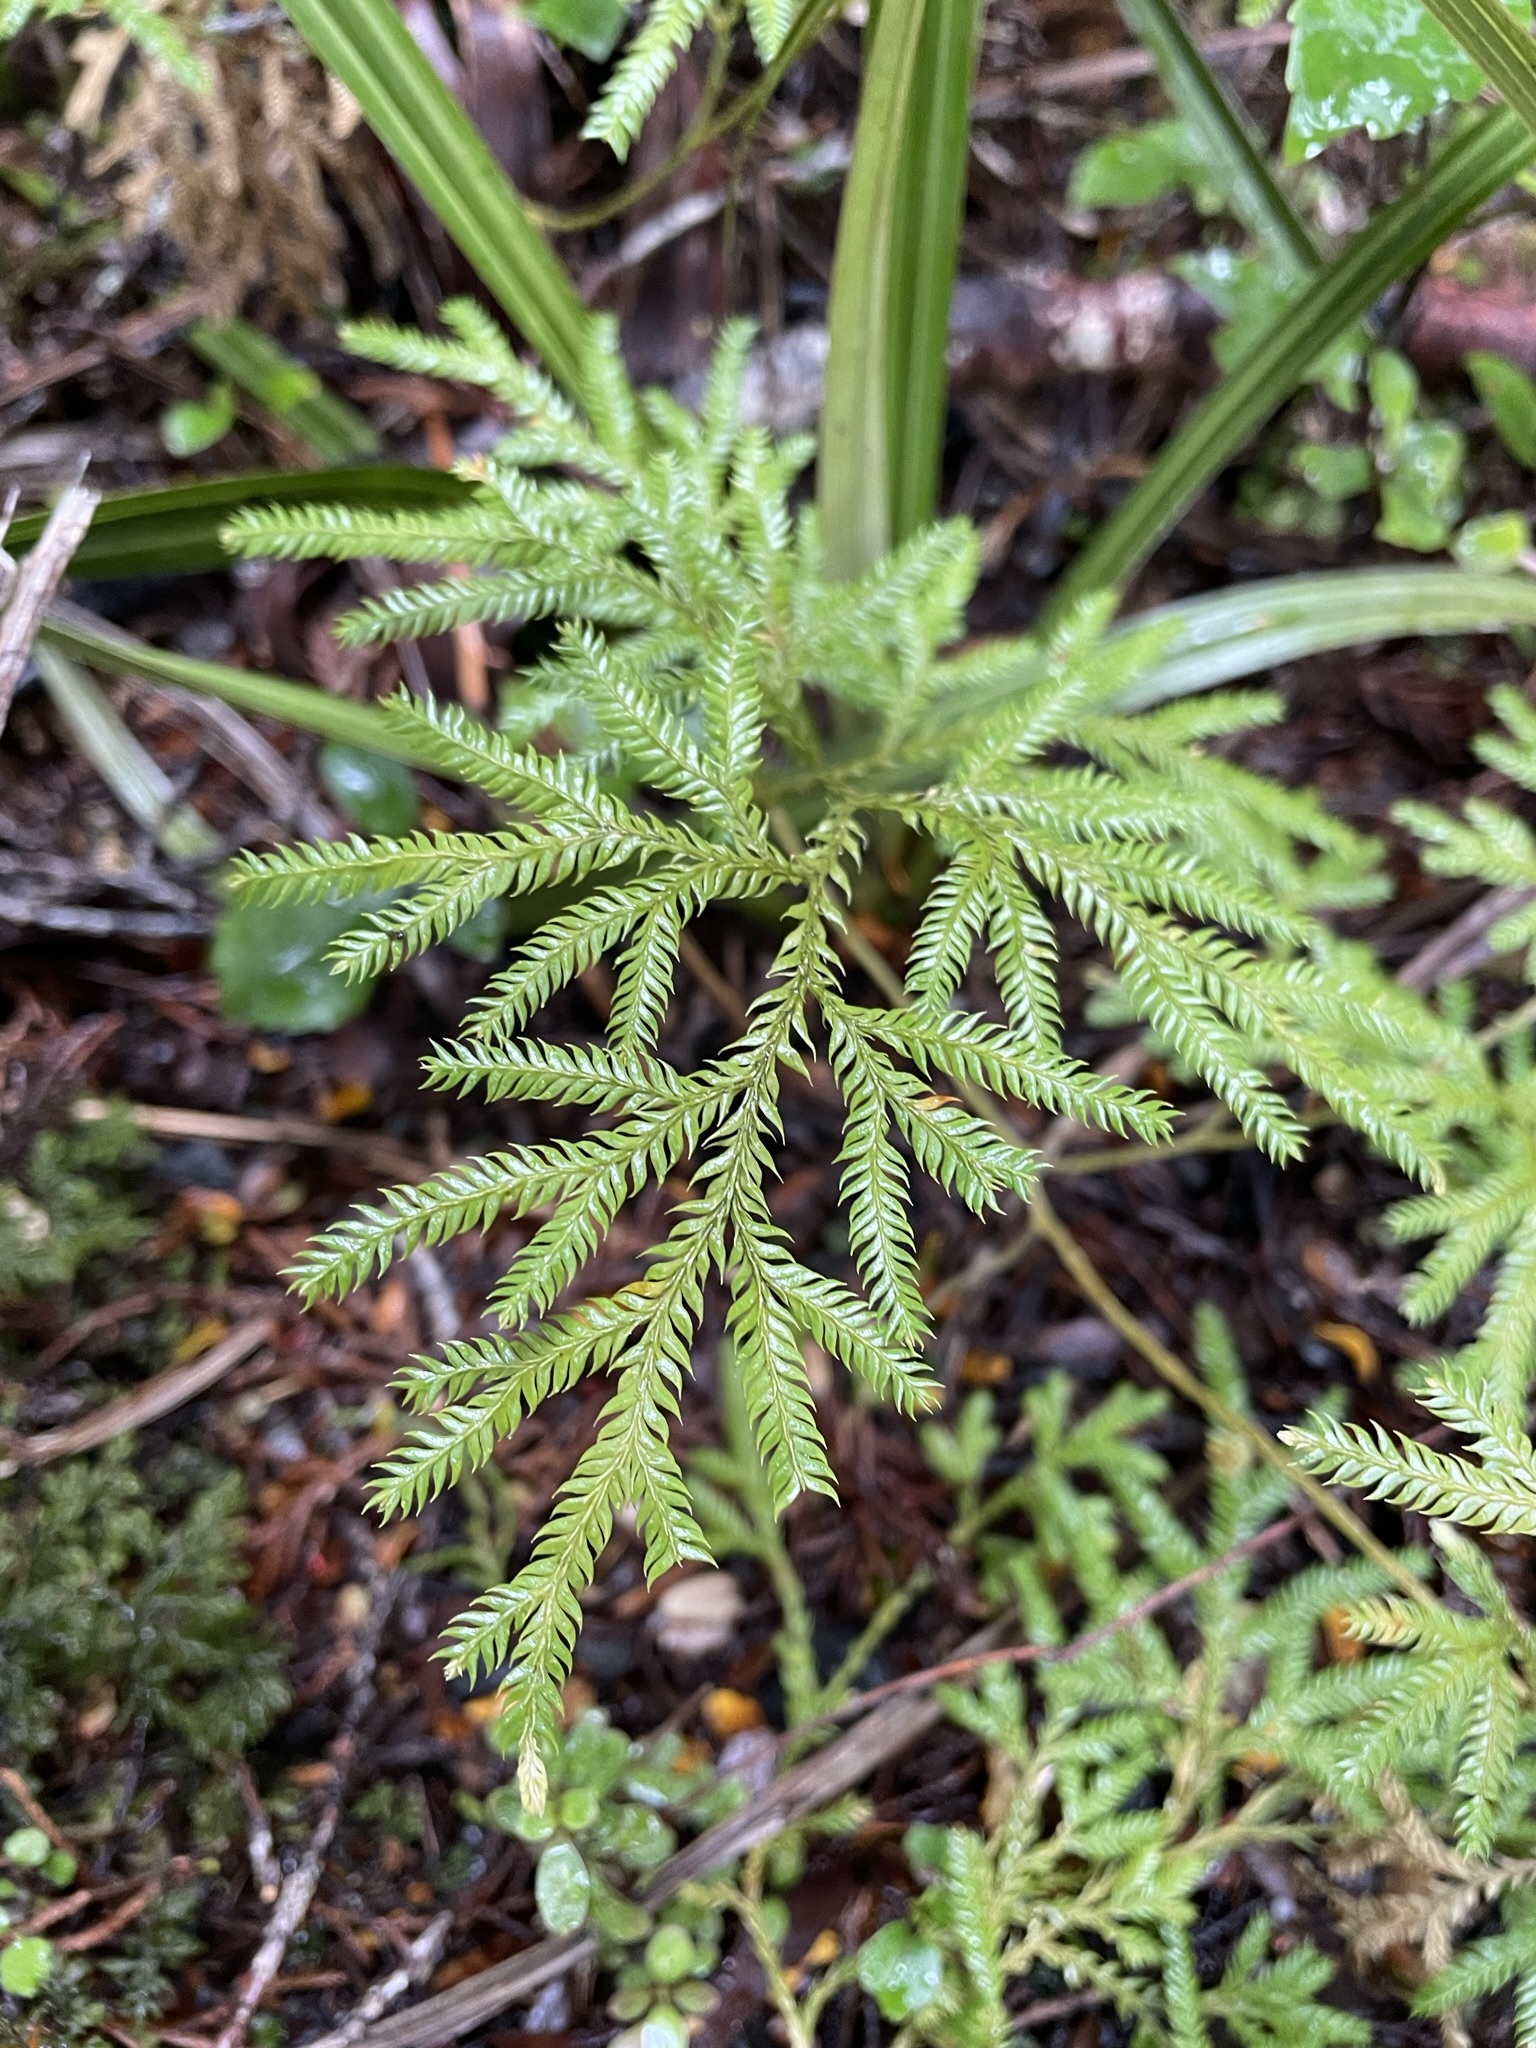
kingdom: Plantae
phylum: Tracheophyta
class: Lycopodiopsida
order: Lycopodiales
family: Lycopodiaceae
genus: Lycopodium
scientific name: Lycopodium volubile
